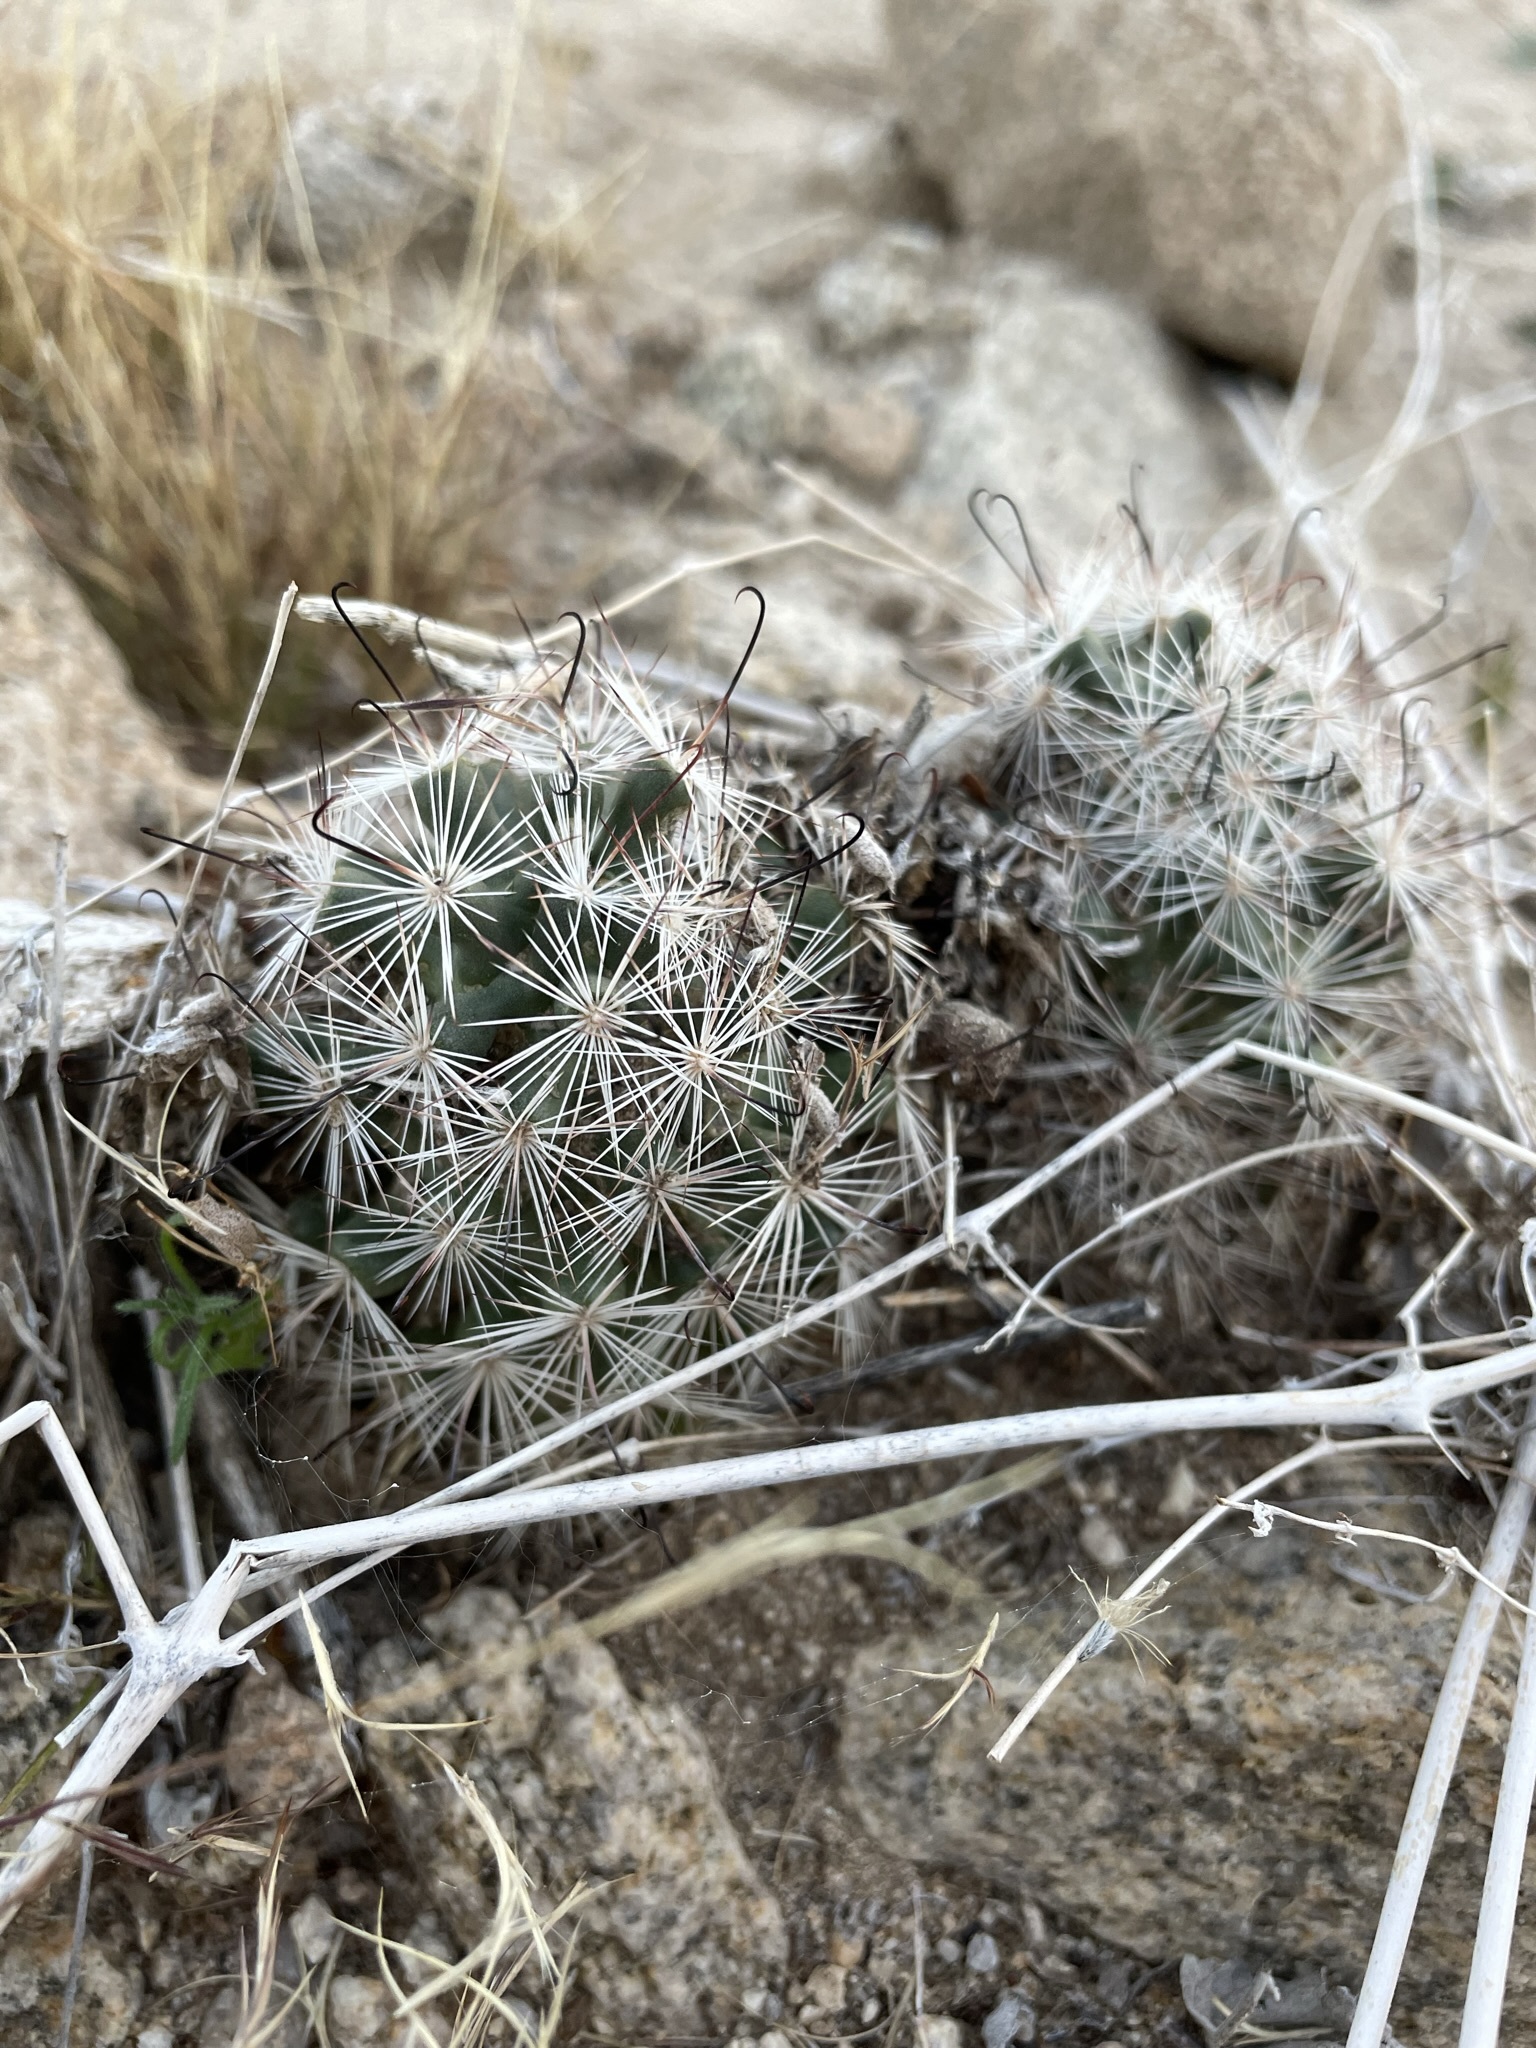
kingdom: Plantae
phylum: Tracheophyta
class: Magnoliopsida
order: Caryophyllales
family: Cactaceae
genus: Cochemiea
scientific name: Cochemiea tetrancistra
